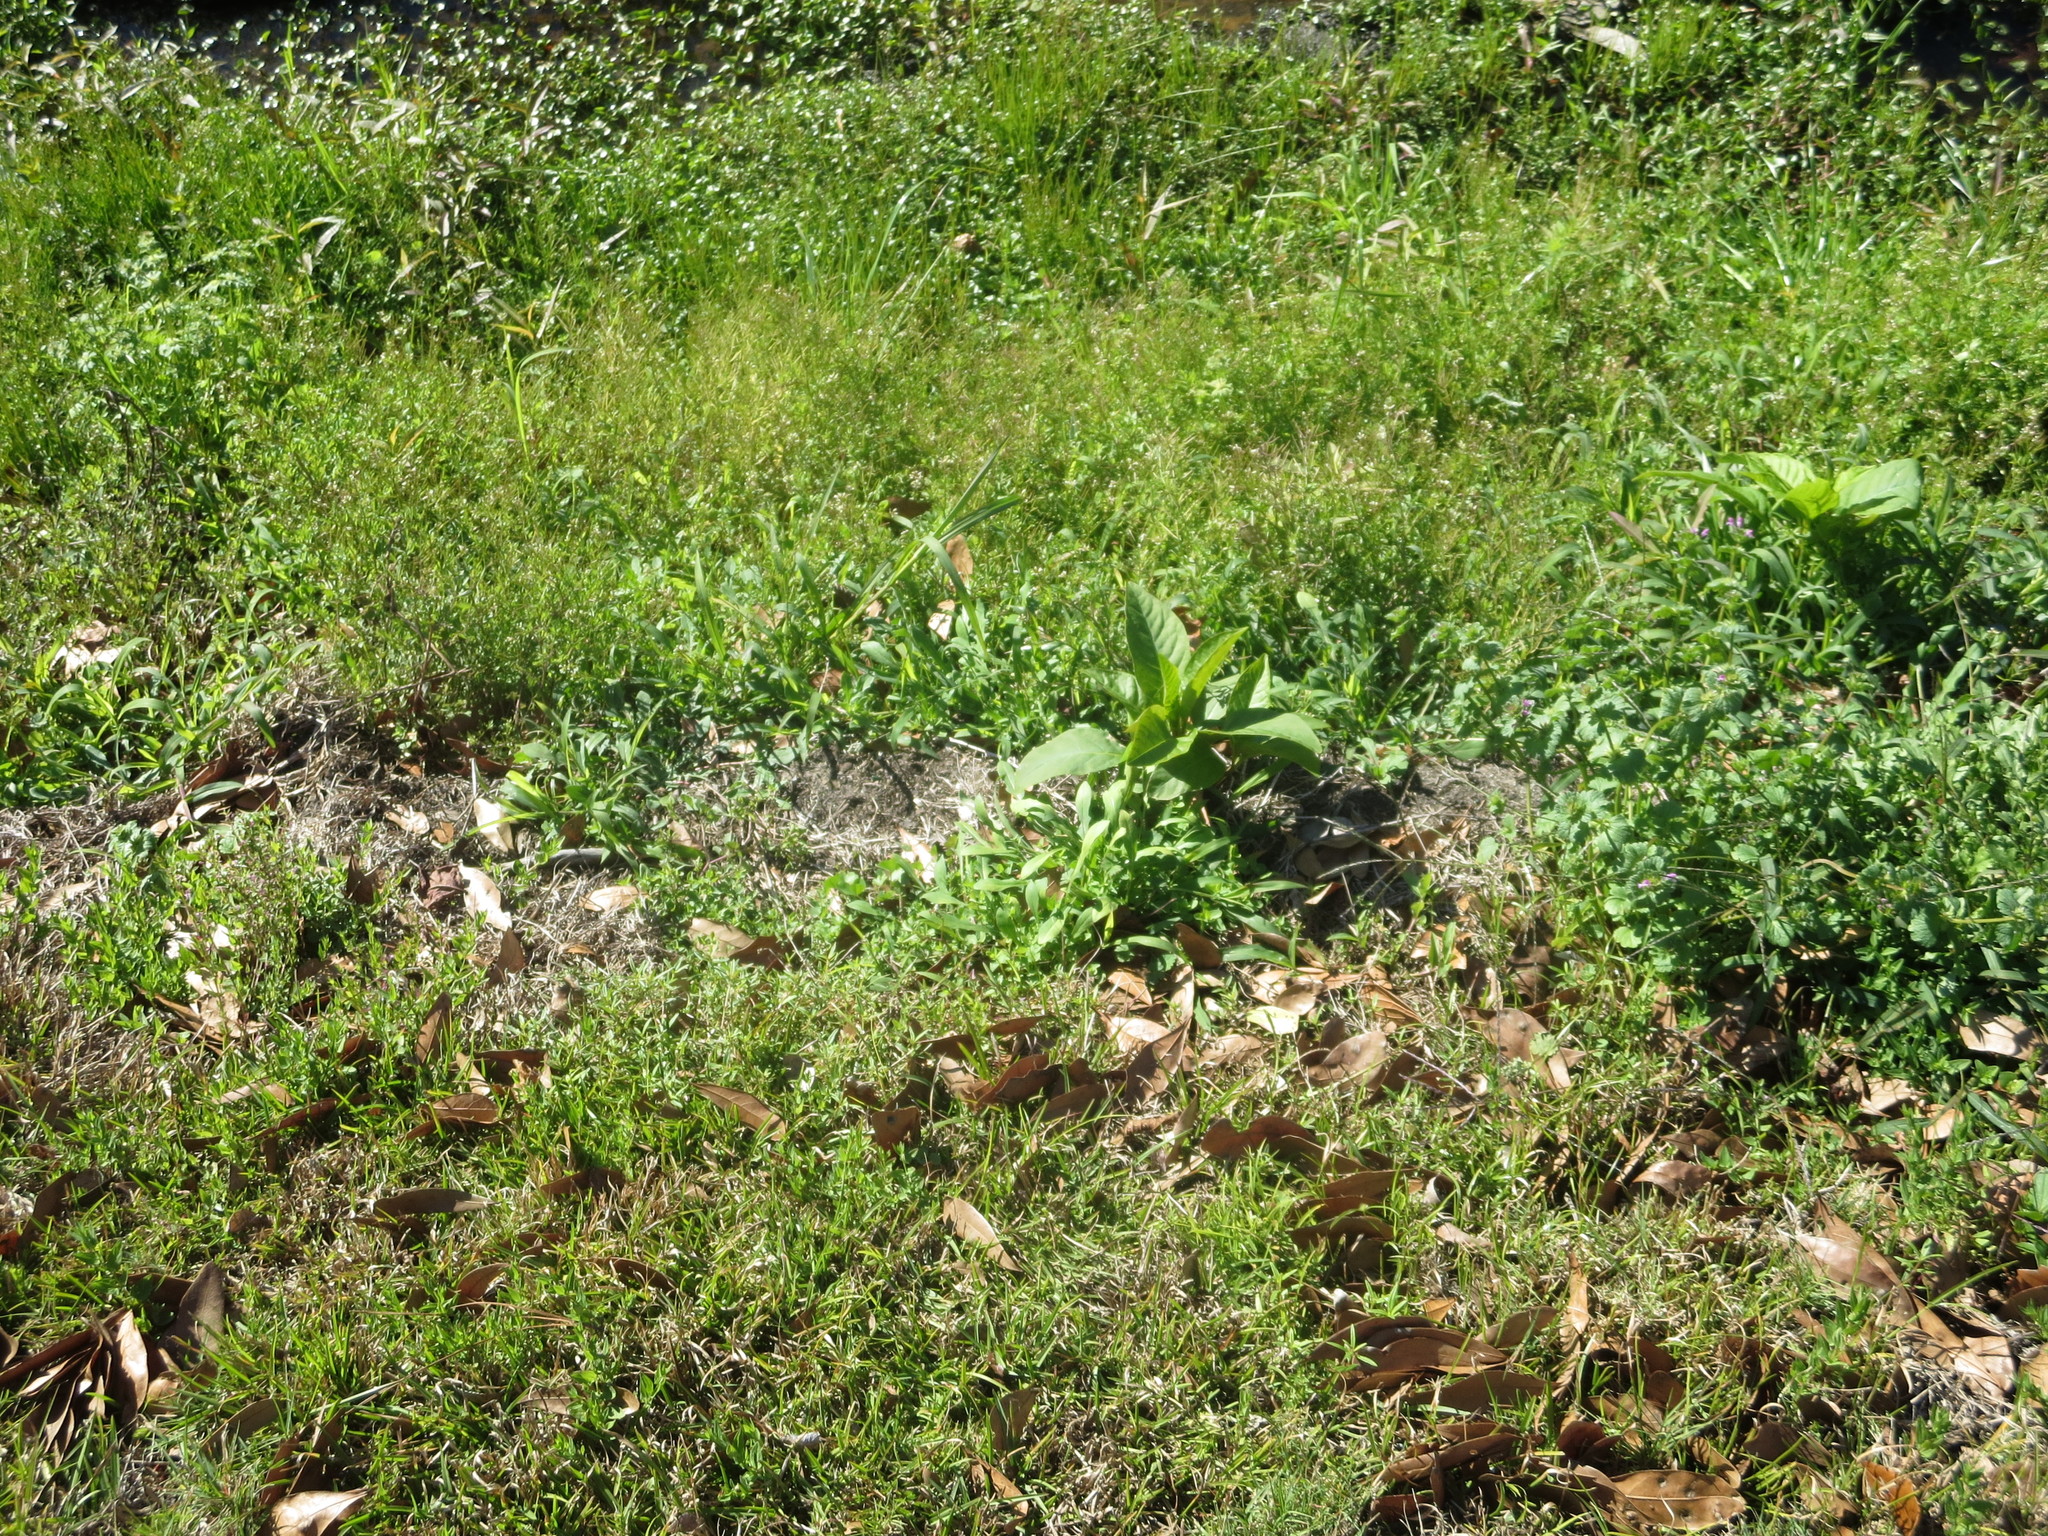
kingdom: Plantae
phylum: Tracheophyta
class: Magnoliopsida
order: Caryophyllales
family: Phytolaccaceae
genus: Phytolacca
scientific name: Phytolacca americana
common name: American pokeweed
